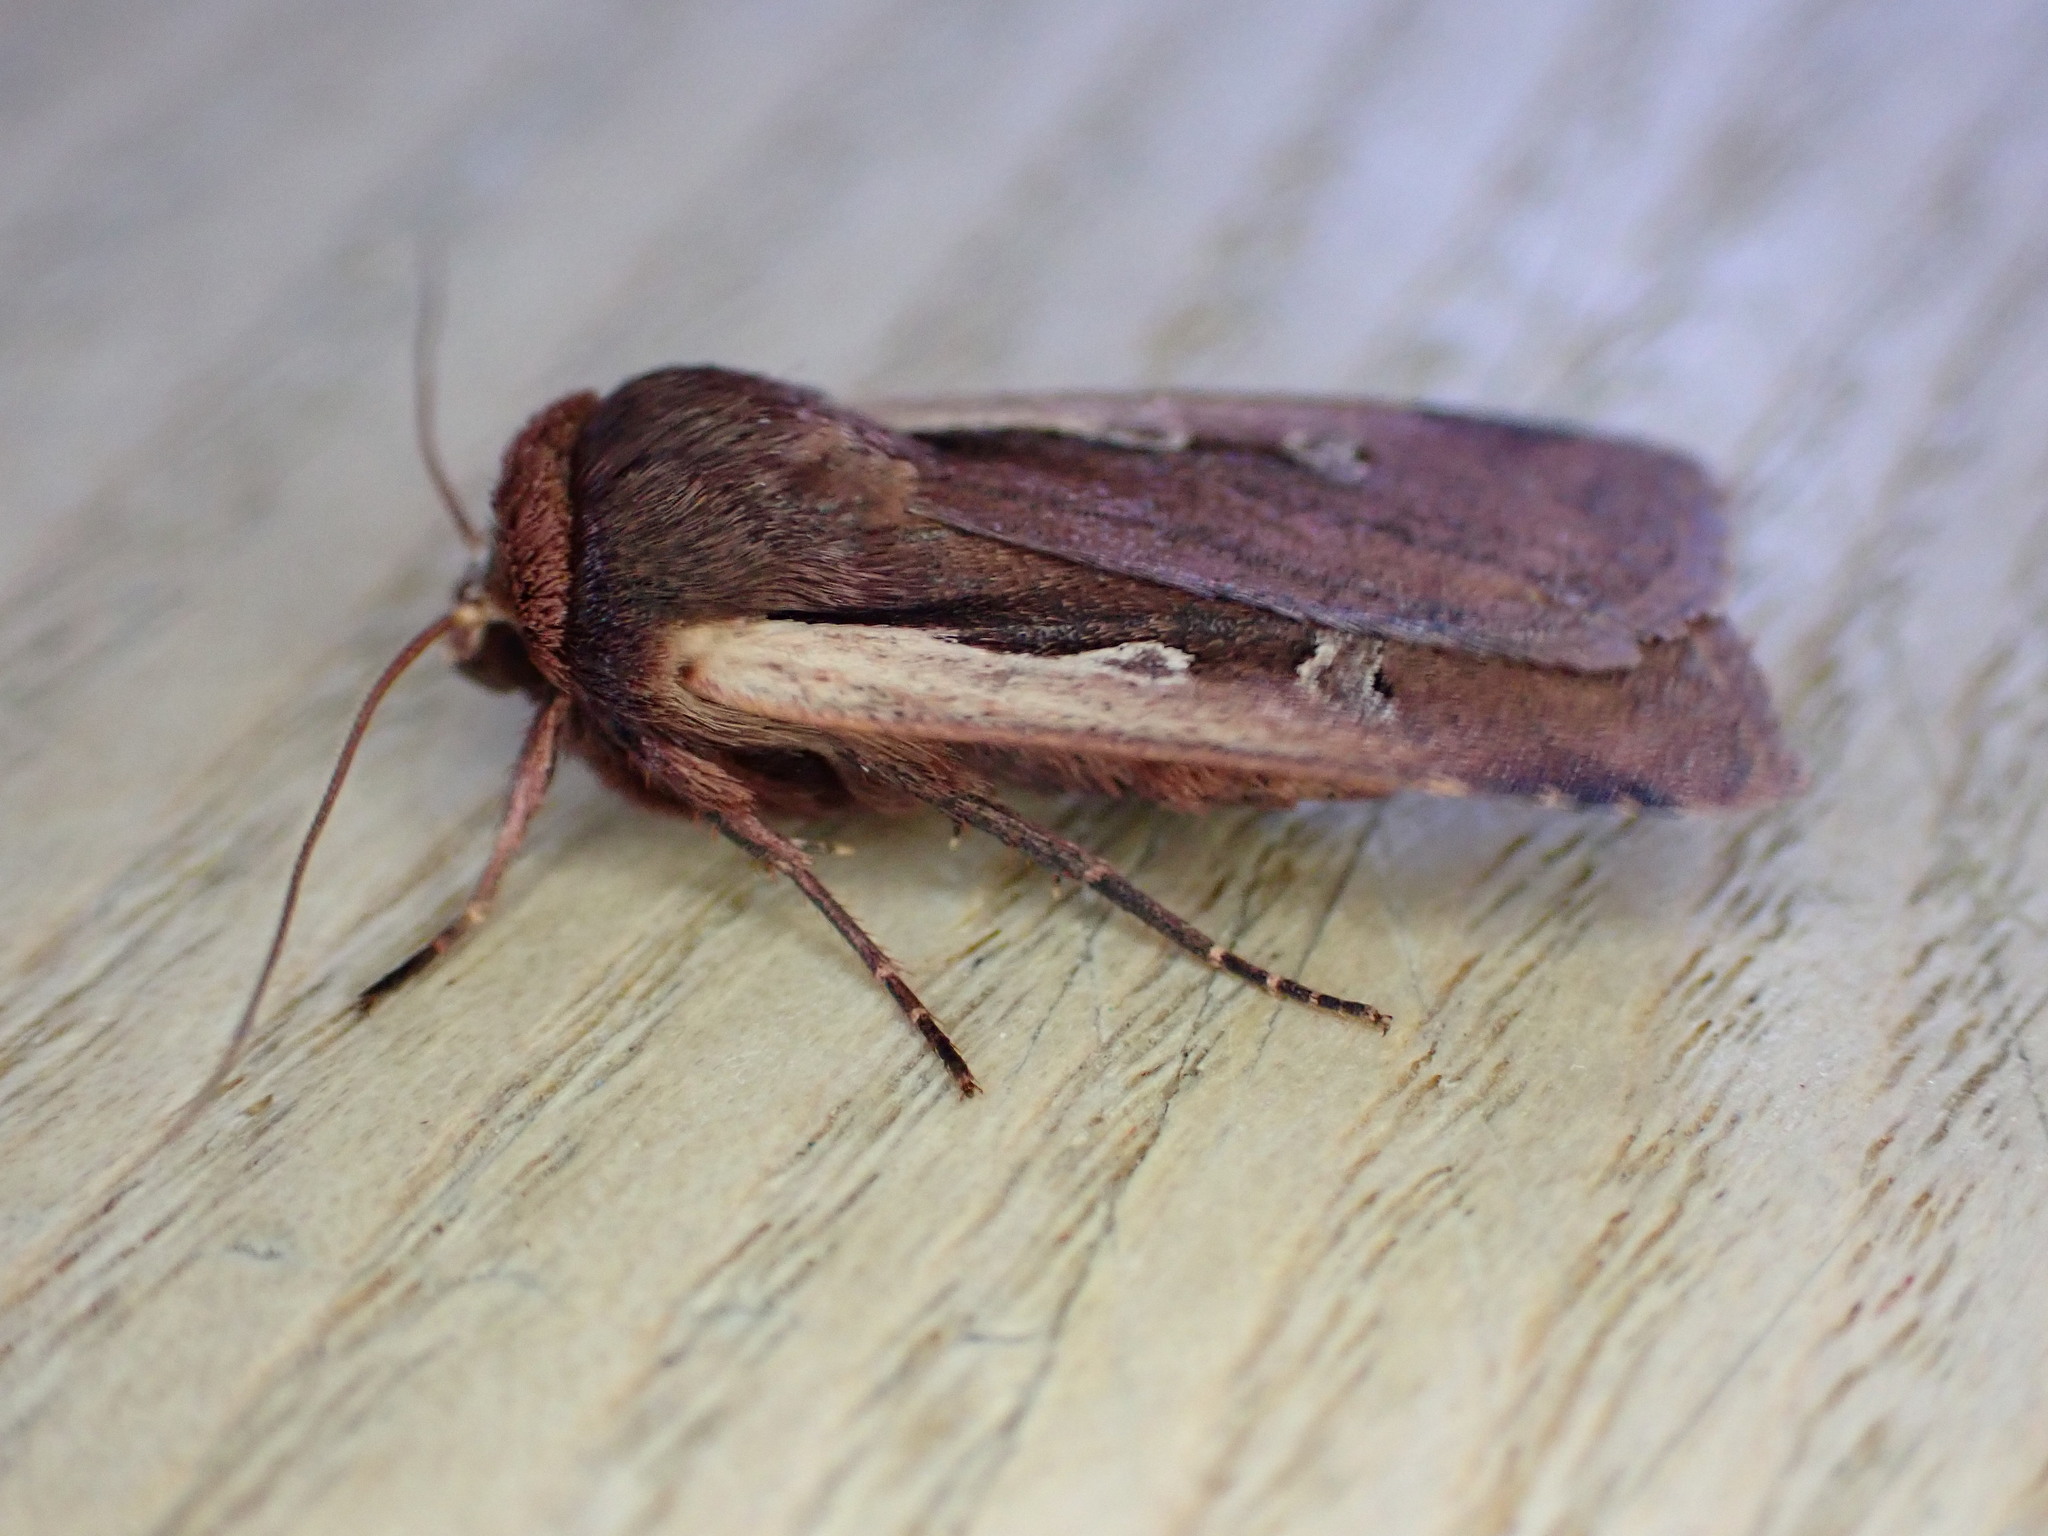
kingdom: Animalia
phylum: Arthropoda
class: Insecta
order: Lepidoptera
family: Noctuidae
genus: Ochropleura
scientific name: Ochropleura plecta
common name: Flame shoulder
